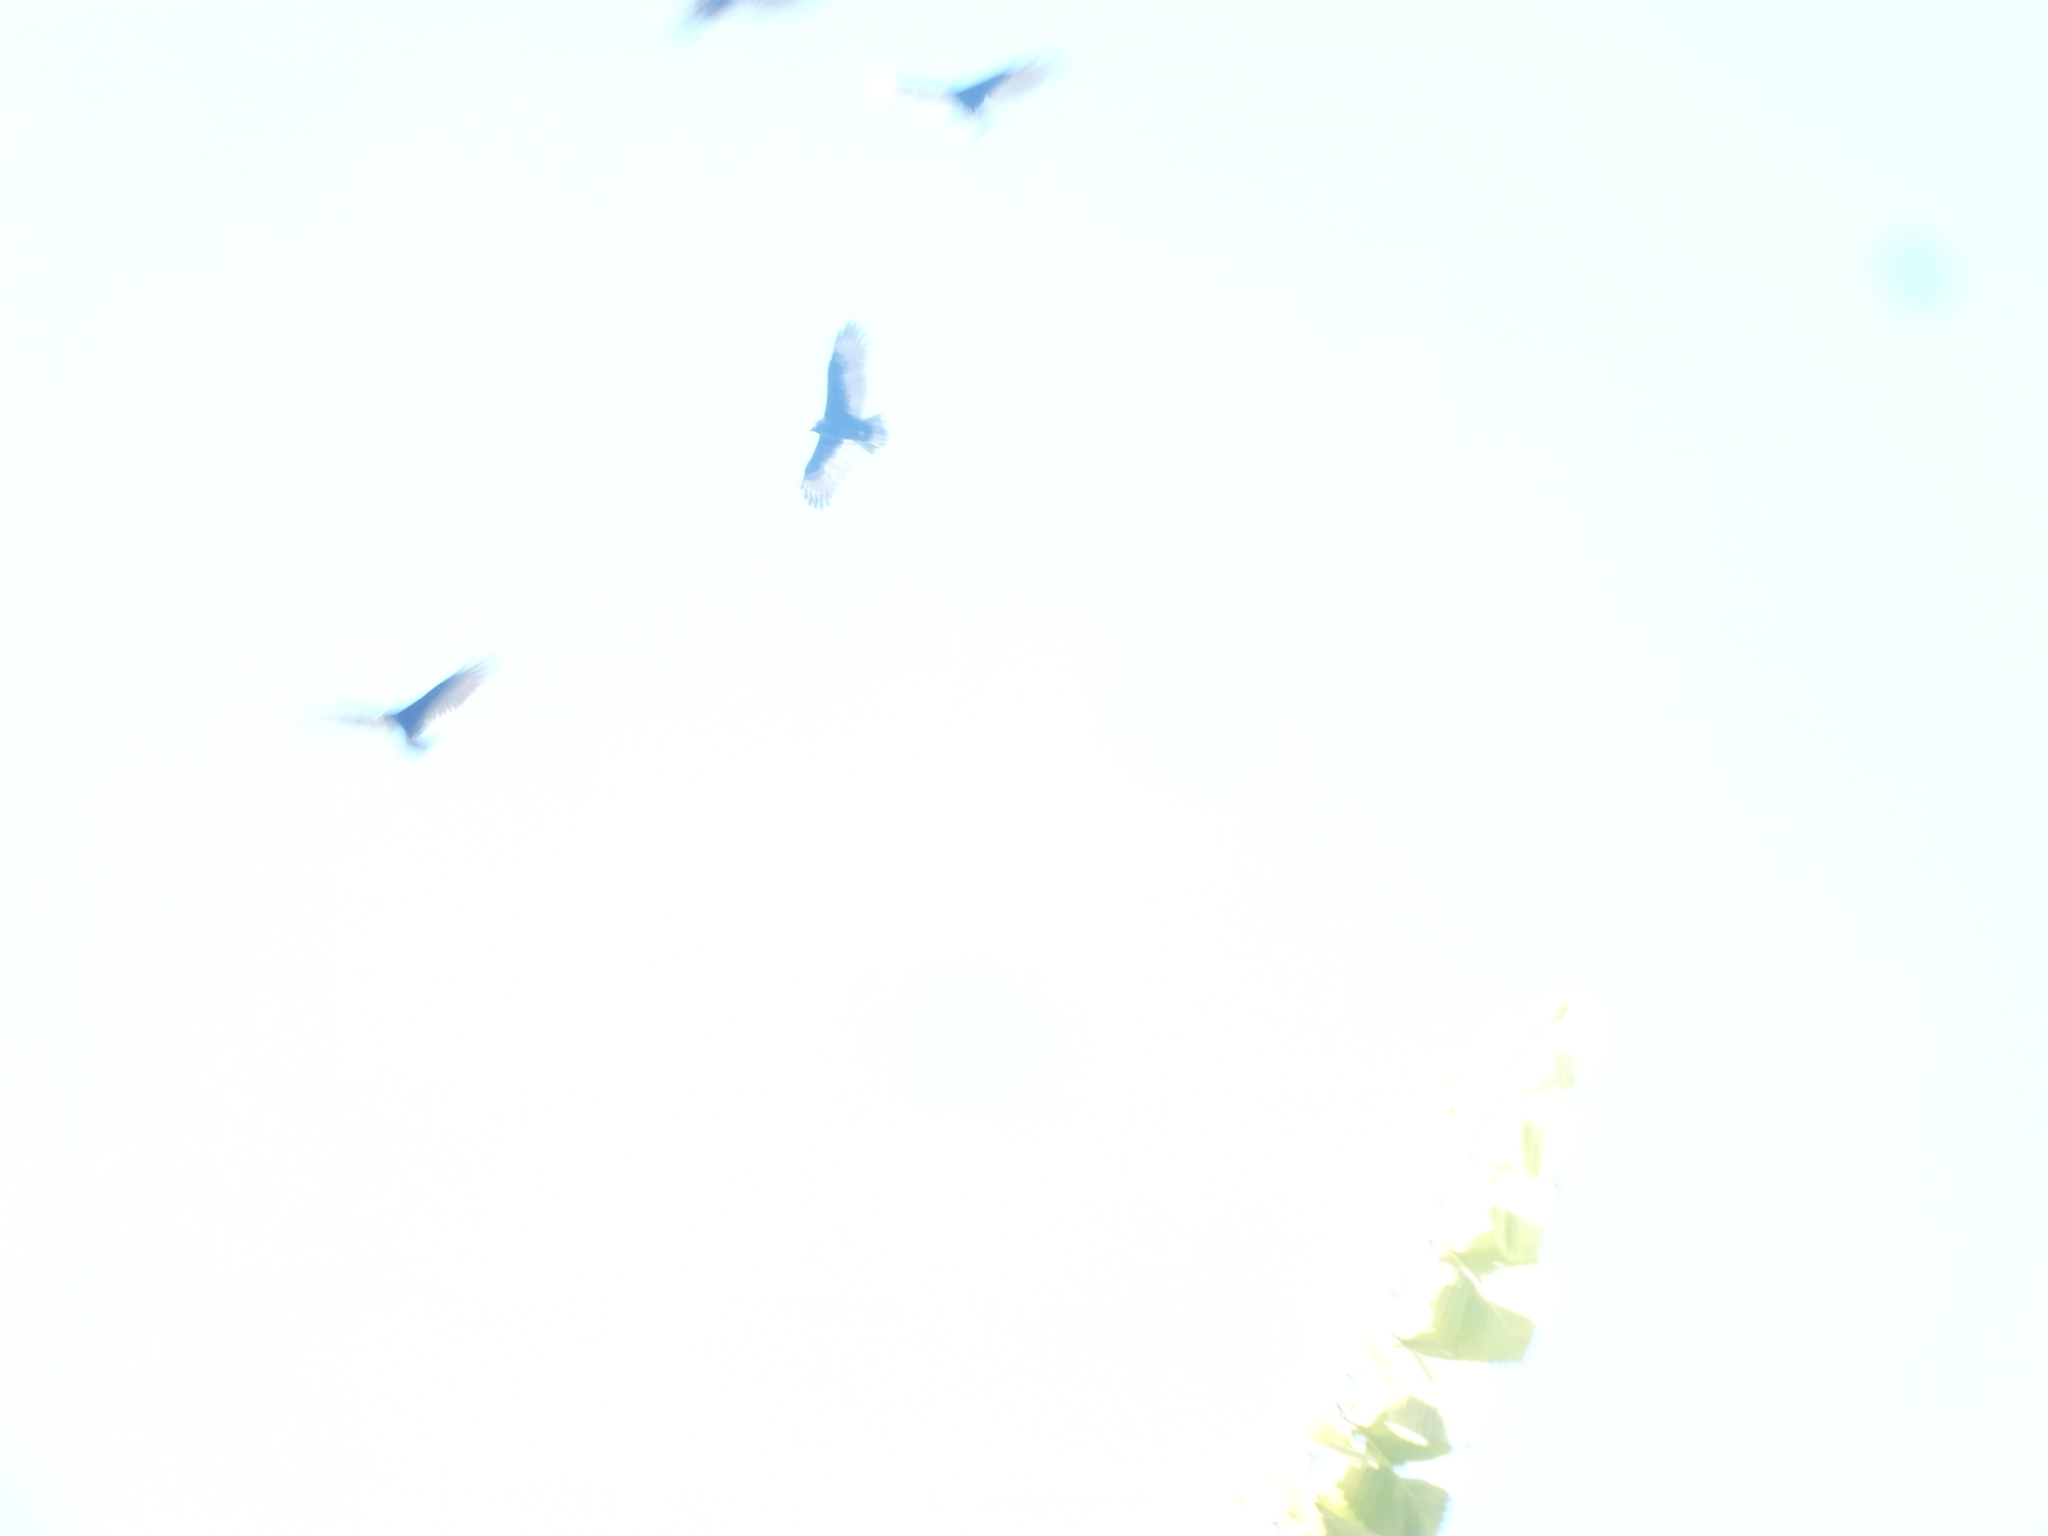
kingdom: Animalia
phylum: Chordata
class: Aves
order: Accipitriformes
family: Cathartidae
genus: Cathartes
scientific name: Cathartes aura
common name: Turkey vulture
